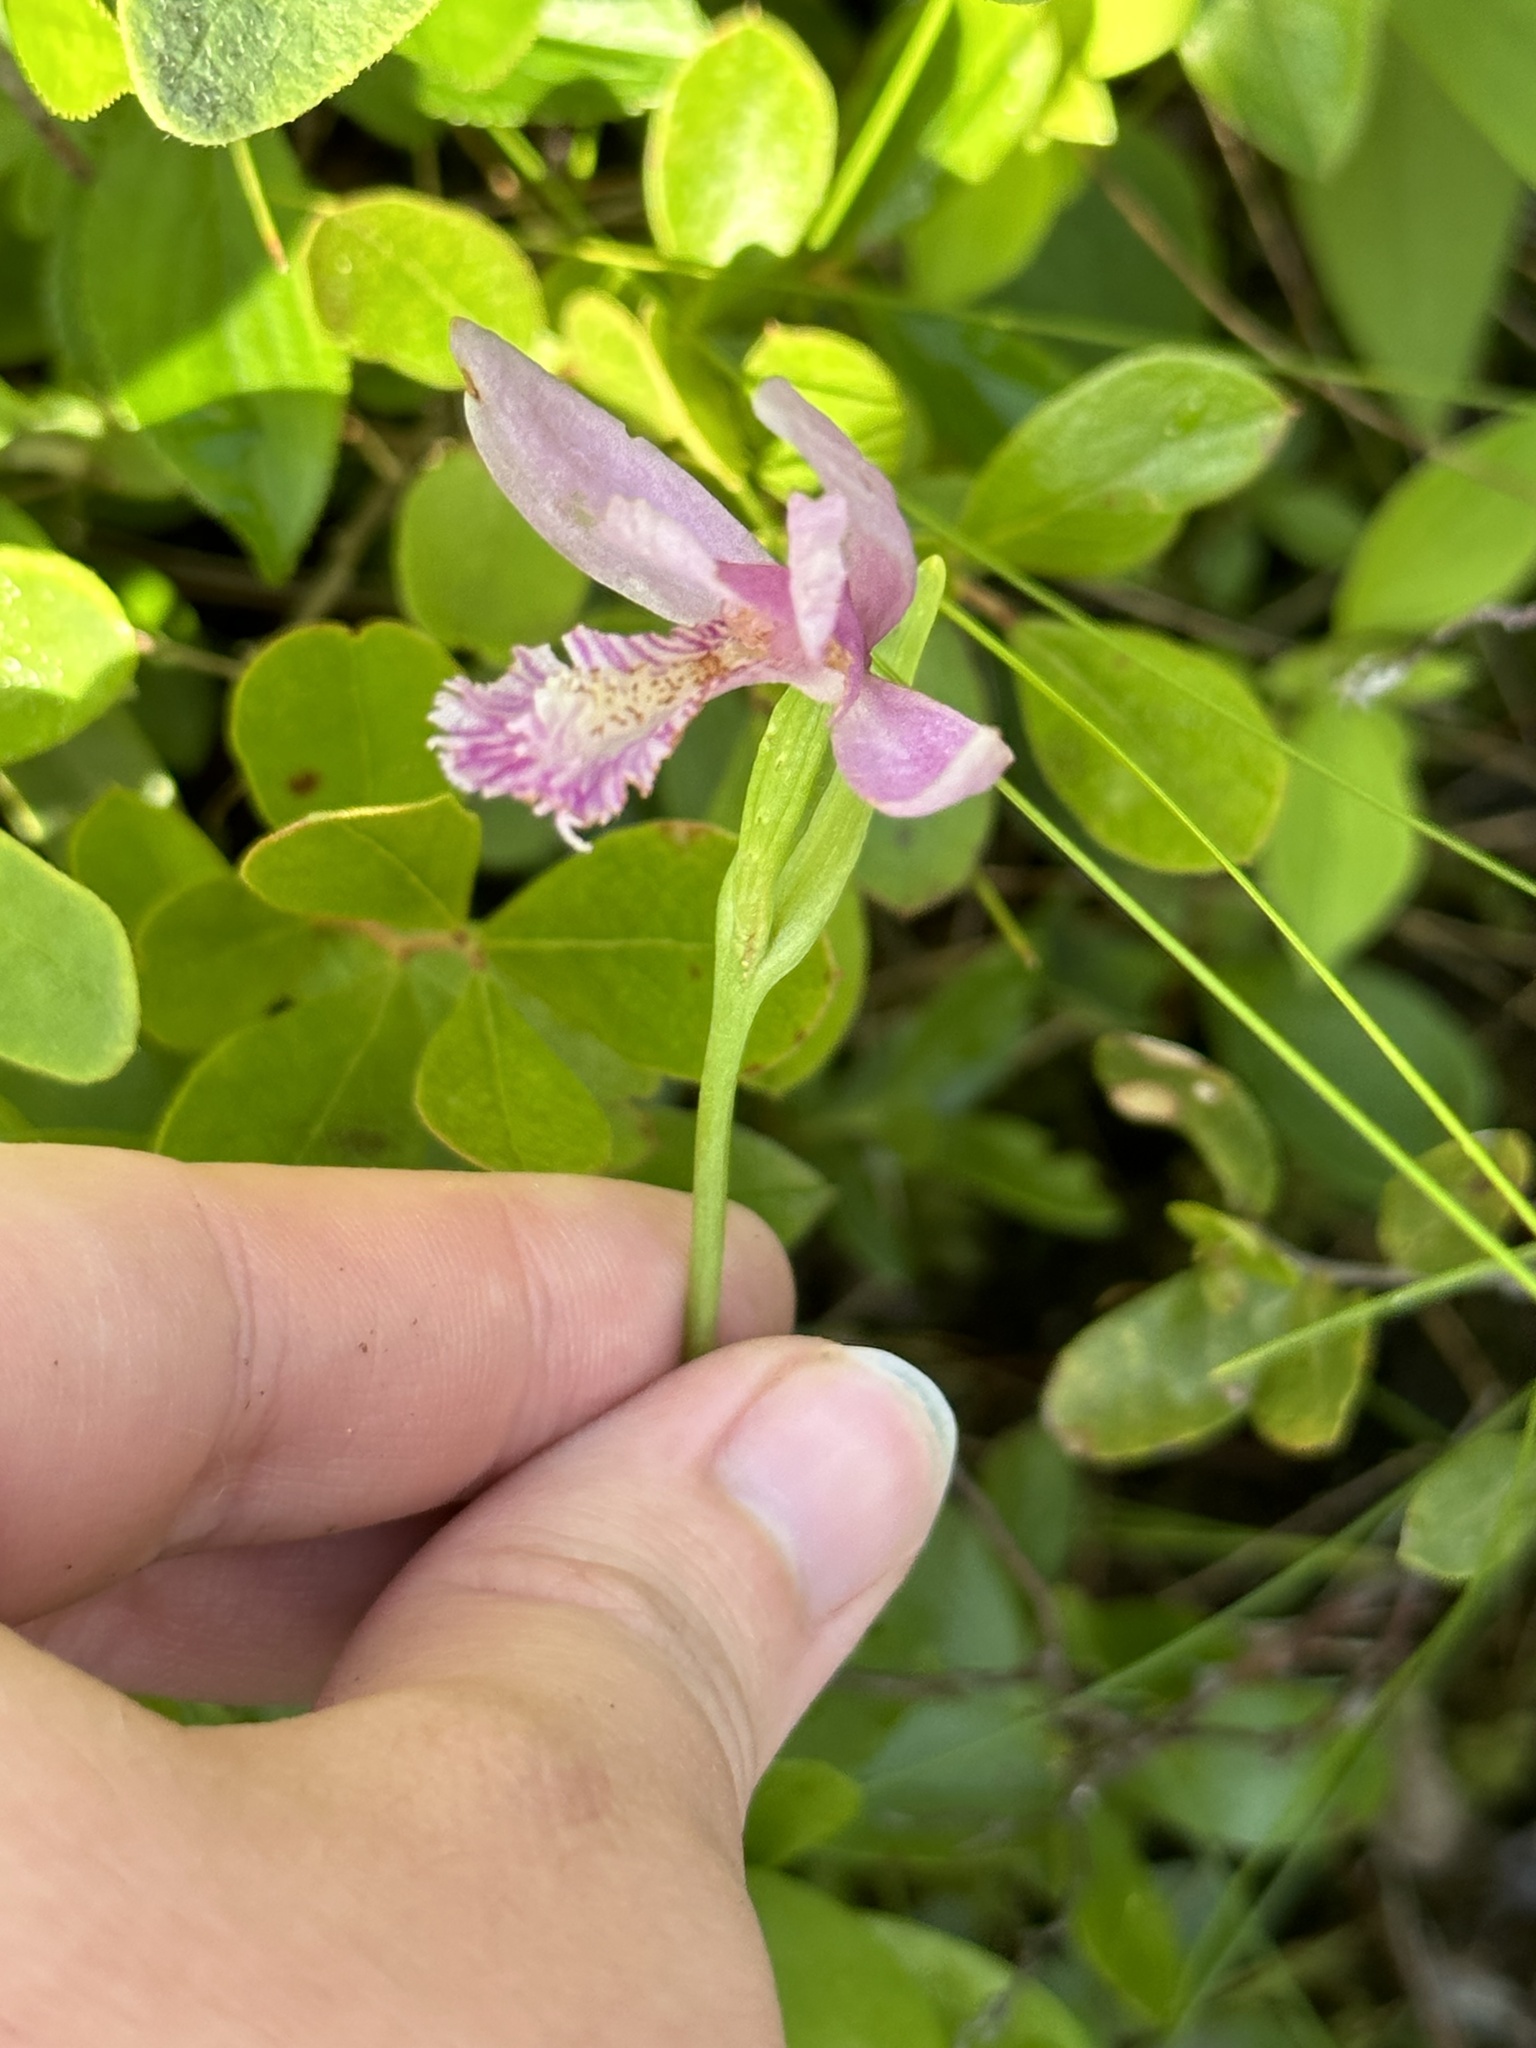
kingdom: Plantae
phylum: Tracheophyta
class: Liliopsida
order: Asparagales
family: Orchidaceae
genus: Pogonia
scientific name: Pogonia ophioglossoides
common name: Rose pogonia
